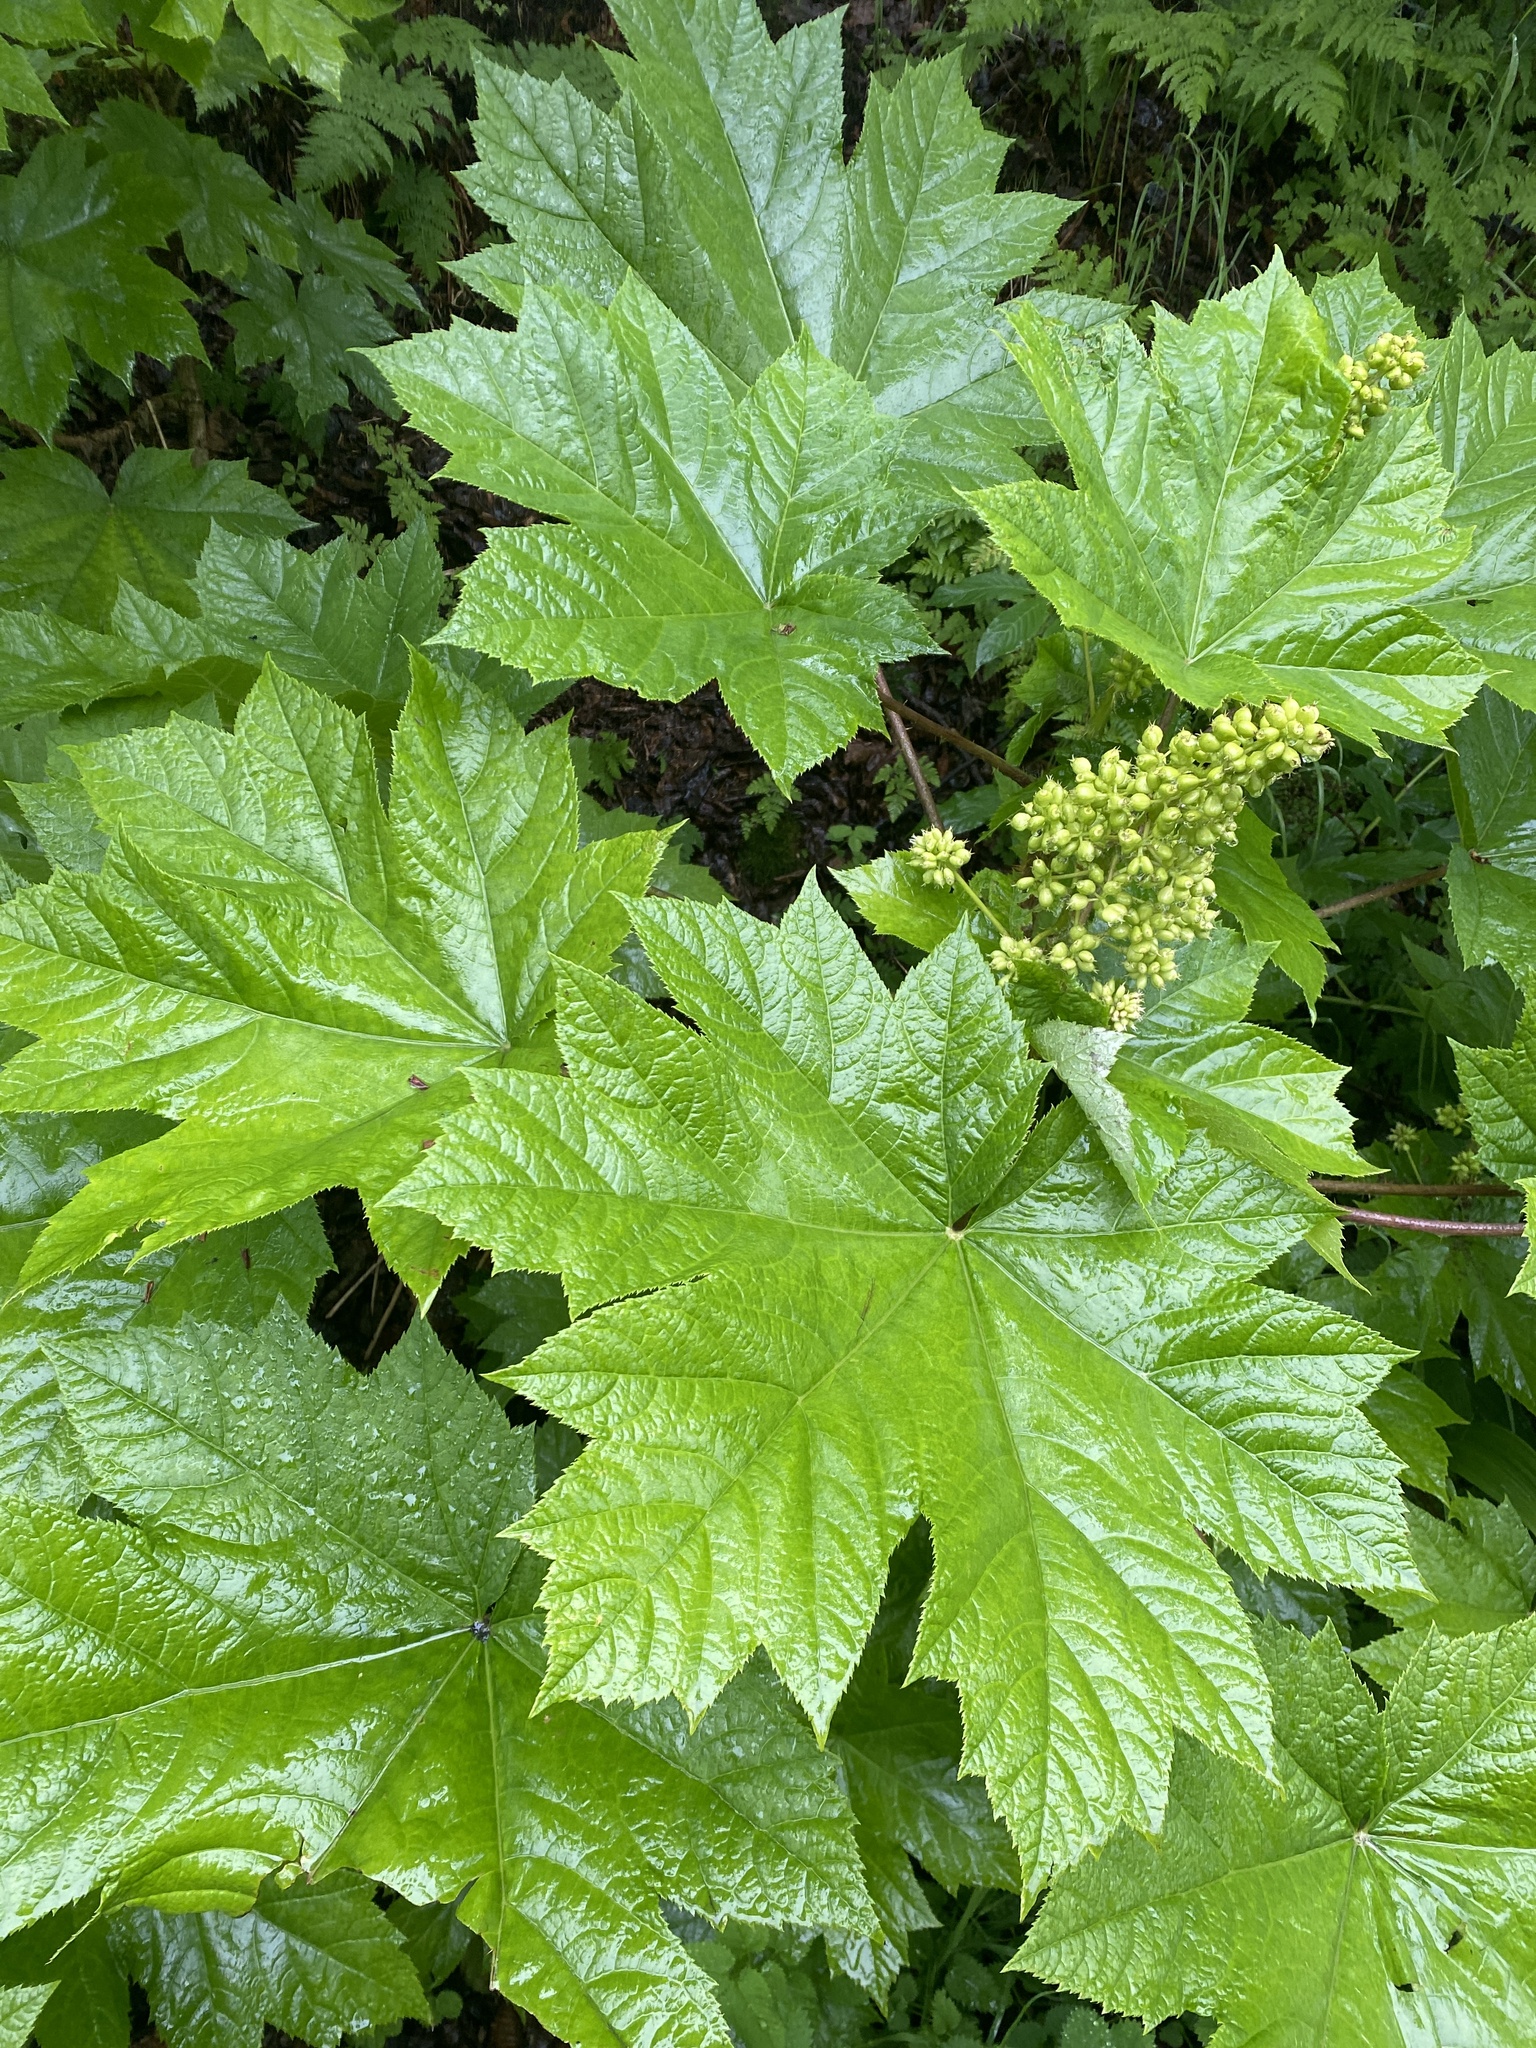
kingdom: Plantae
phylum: Tracheophyta
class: Magnoliopsida
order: Apiales
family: Araliaceae
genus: Oplopanax
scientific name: Oplopanax horridus
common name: Devil's walking-stick
